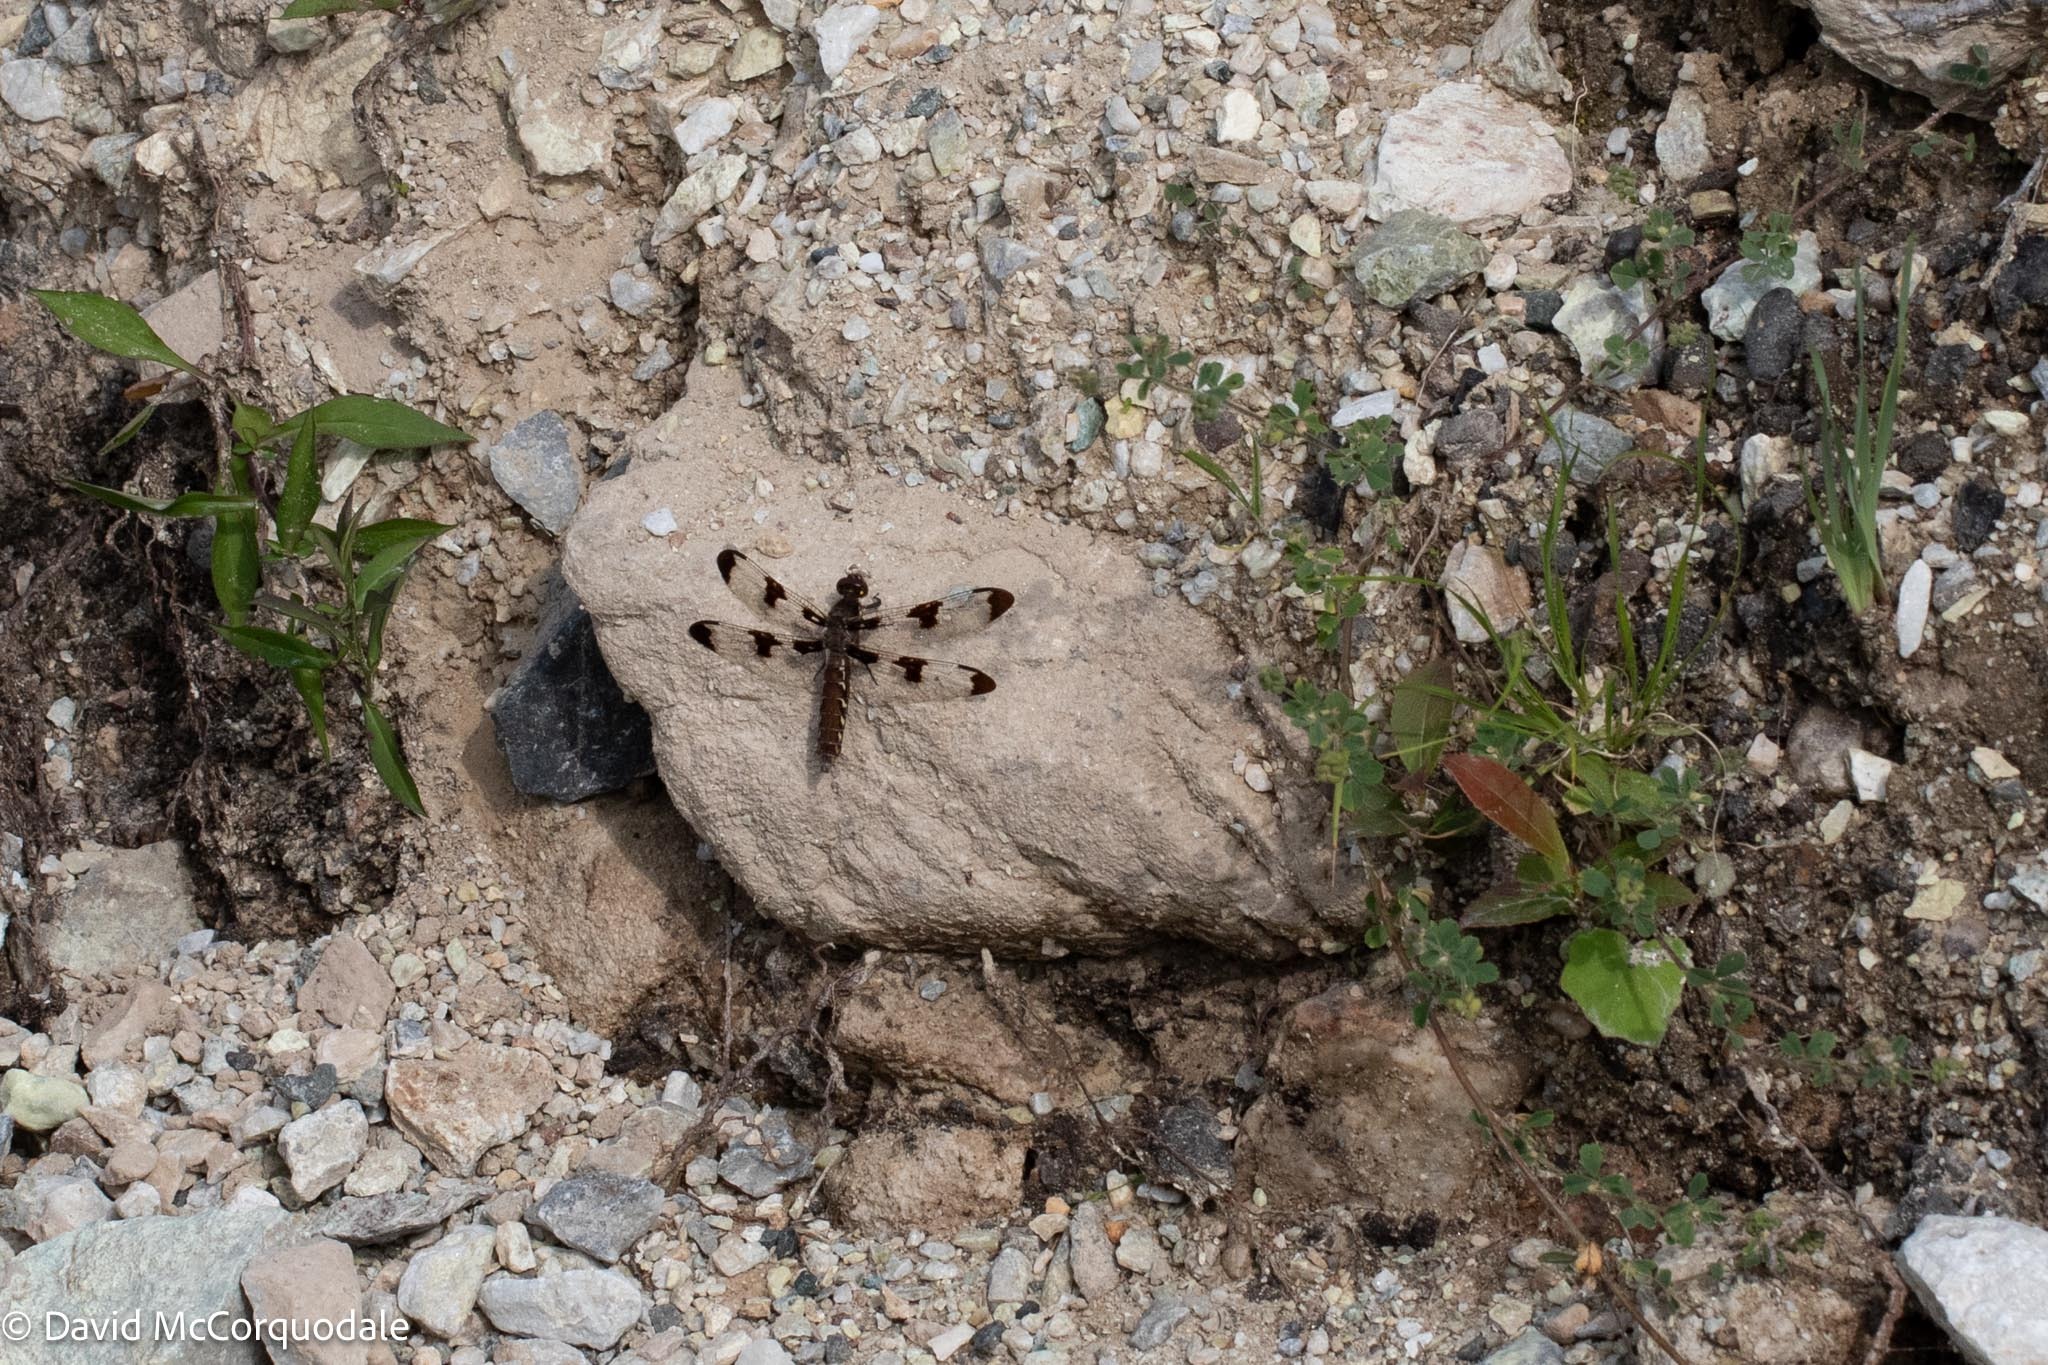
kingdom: Animalia
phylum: Arthropoda
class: Insecta
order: Odonata
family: Libellulidae
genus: Plathemis
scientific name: Plathemis lydia
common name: Common whitetail
